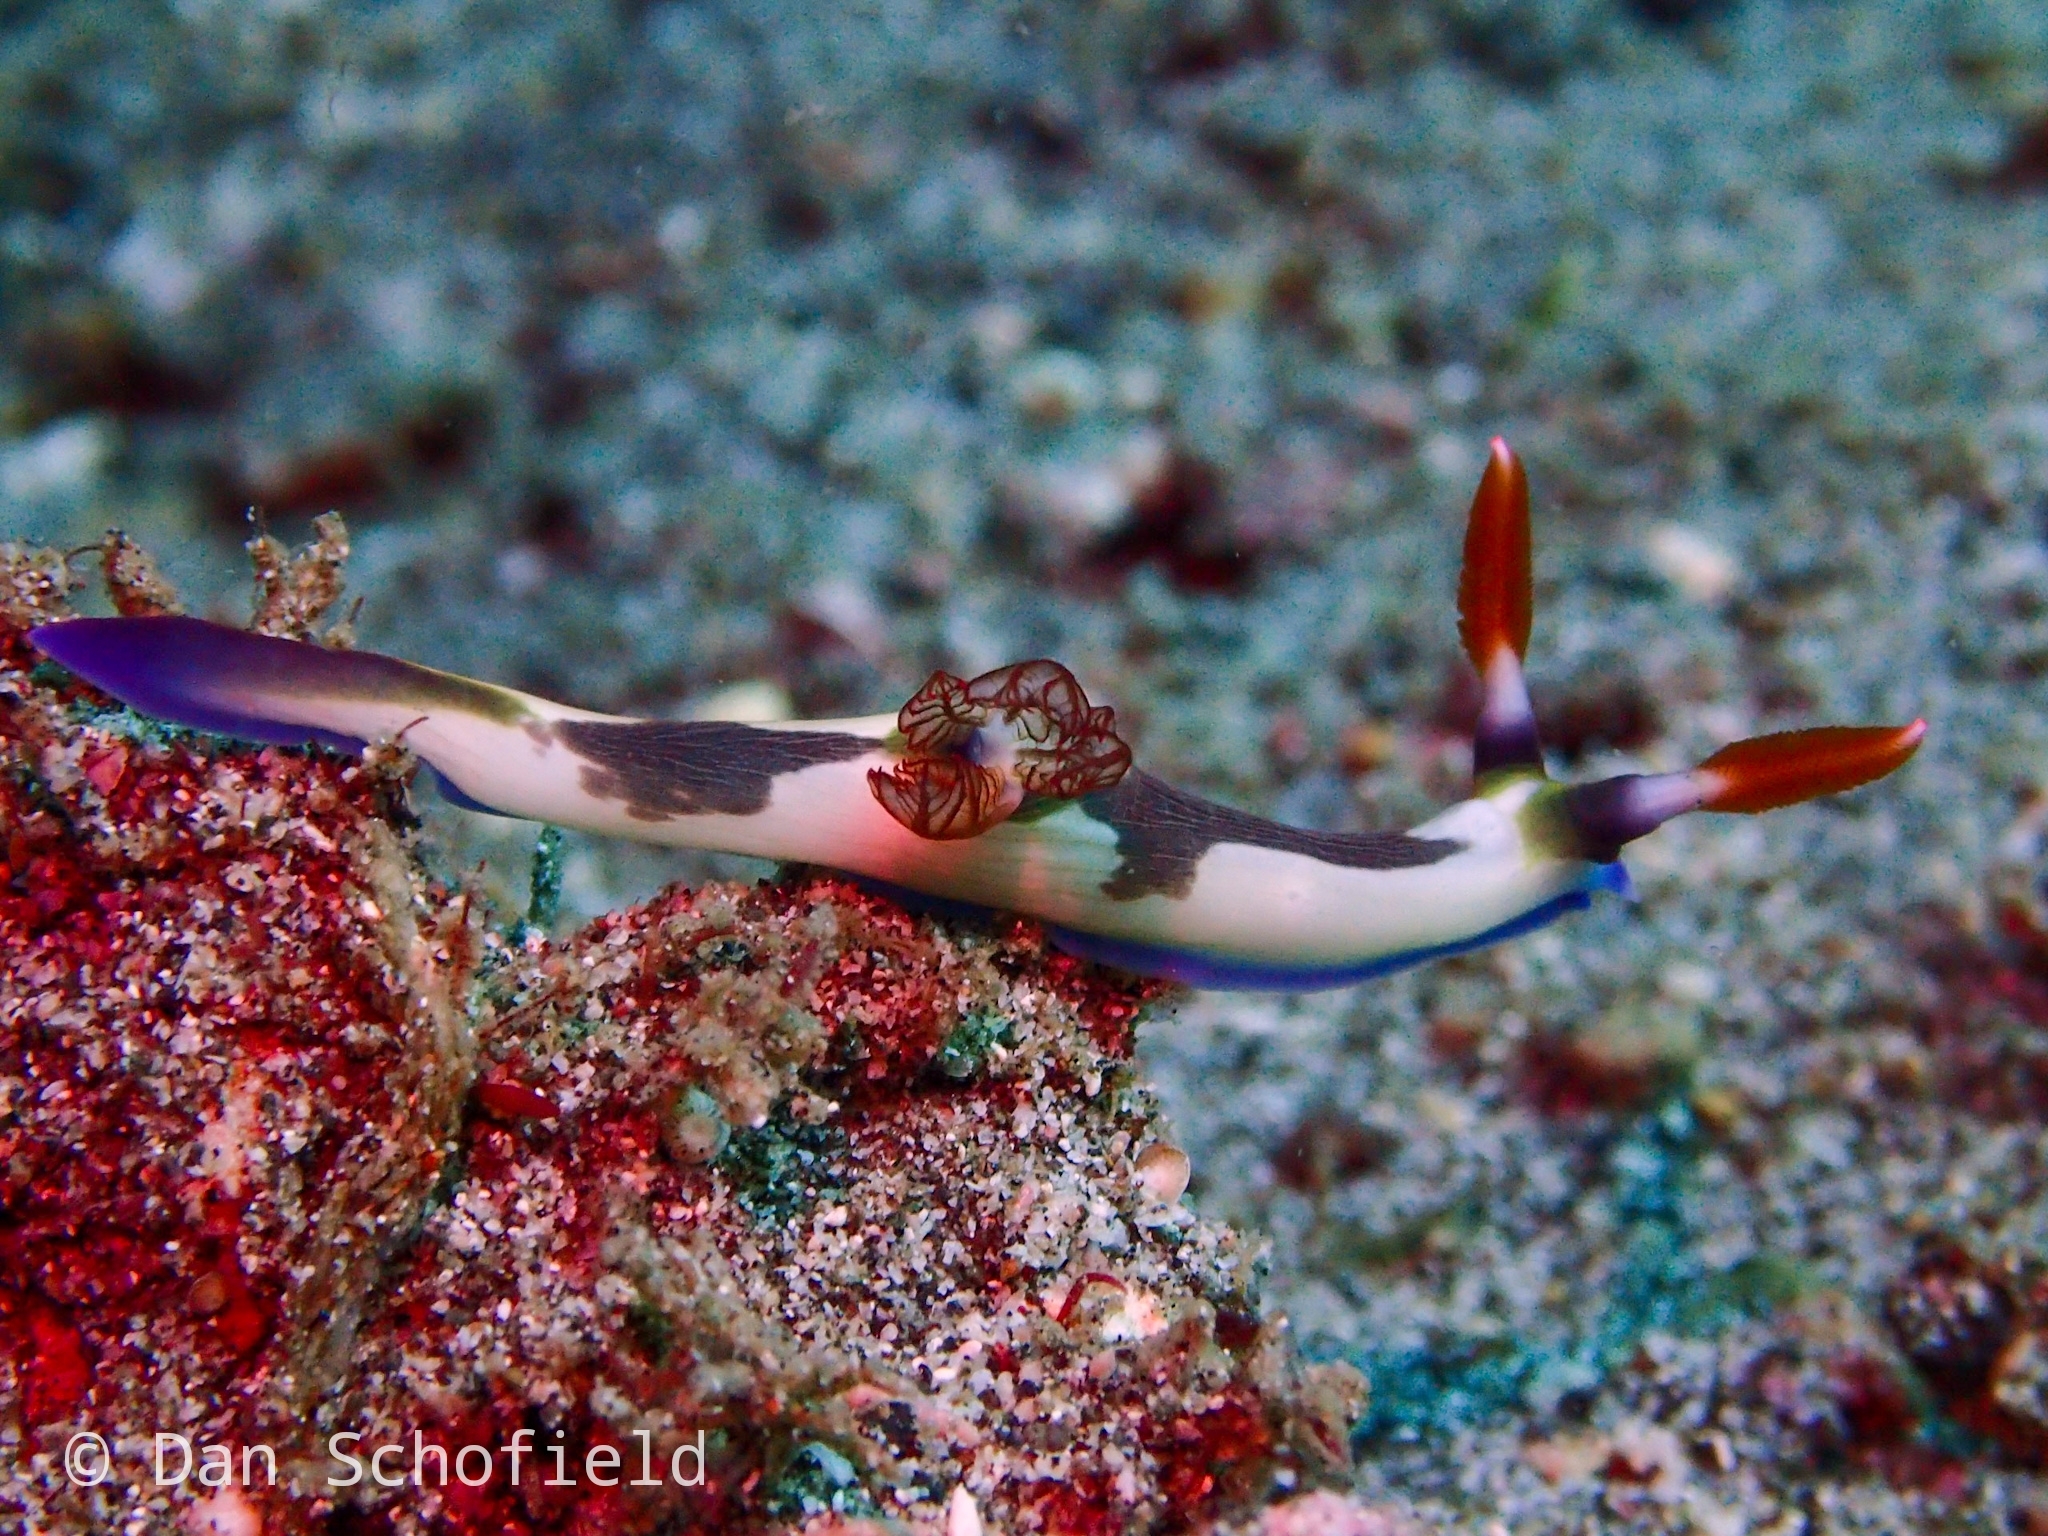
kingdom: Animalia
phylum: Mollusca
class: Gastropoda
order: Nudibranchia
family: Polyceridae
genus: Nembrotha
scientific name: Nembrotha chamberlaini
